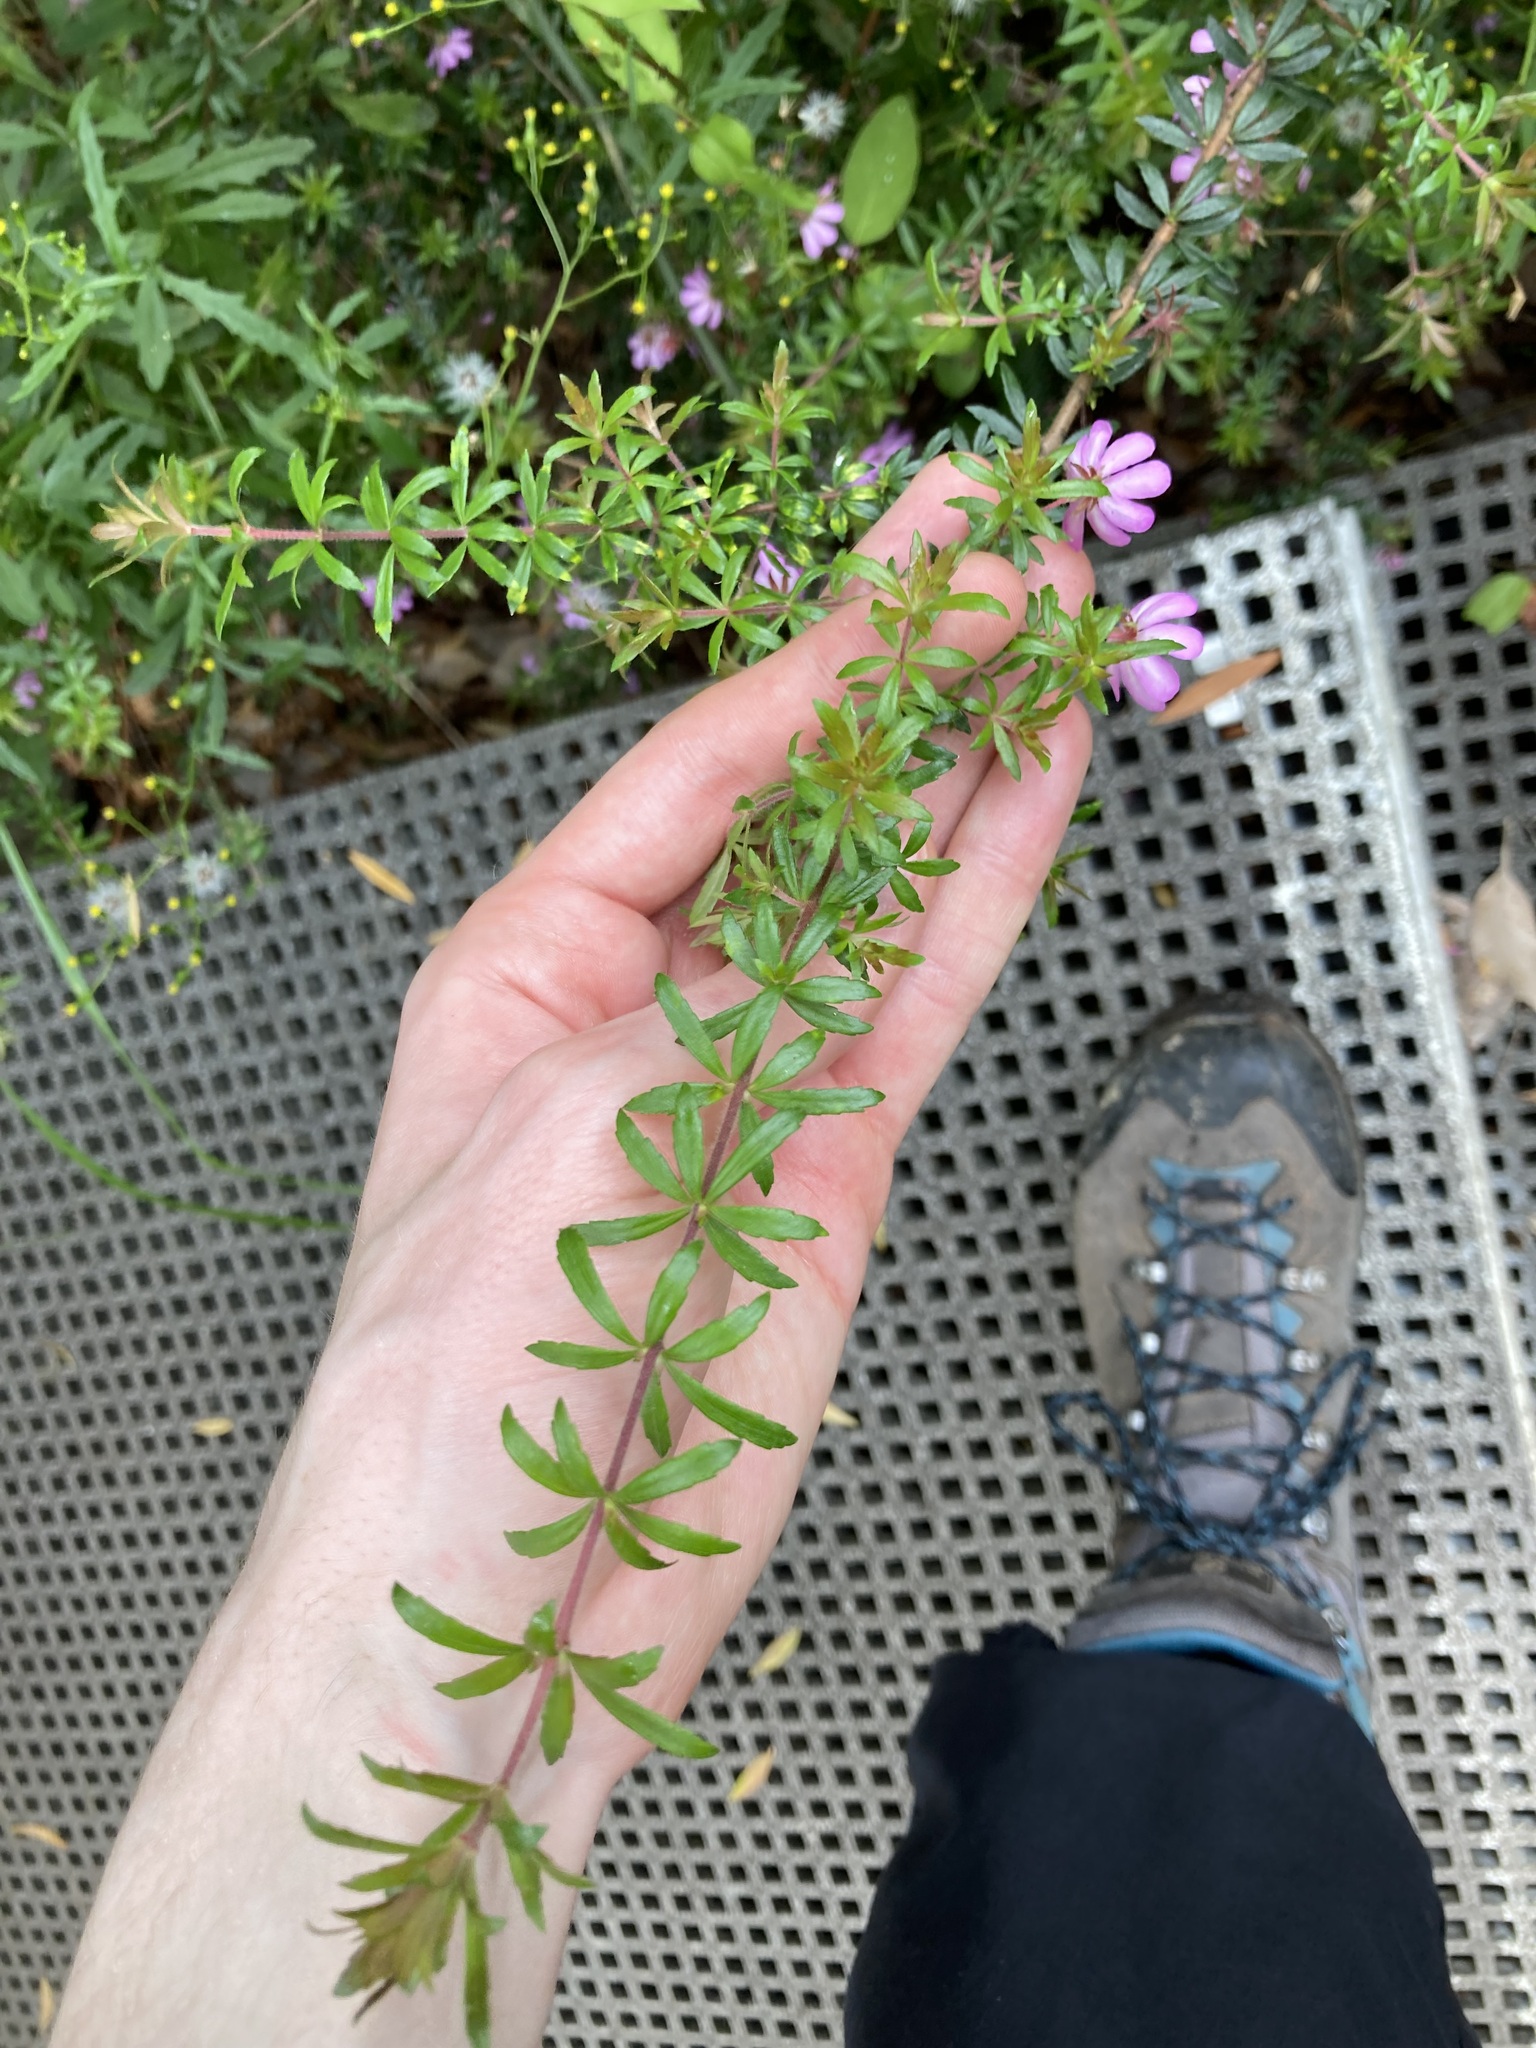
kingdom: Plantae
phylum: Tracheophyta
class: Magnoliopsida
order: Oxalidales
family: Cunoniaceae
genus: Bauera
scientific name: Bauera rubioides
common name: River-rose
